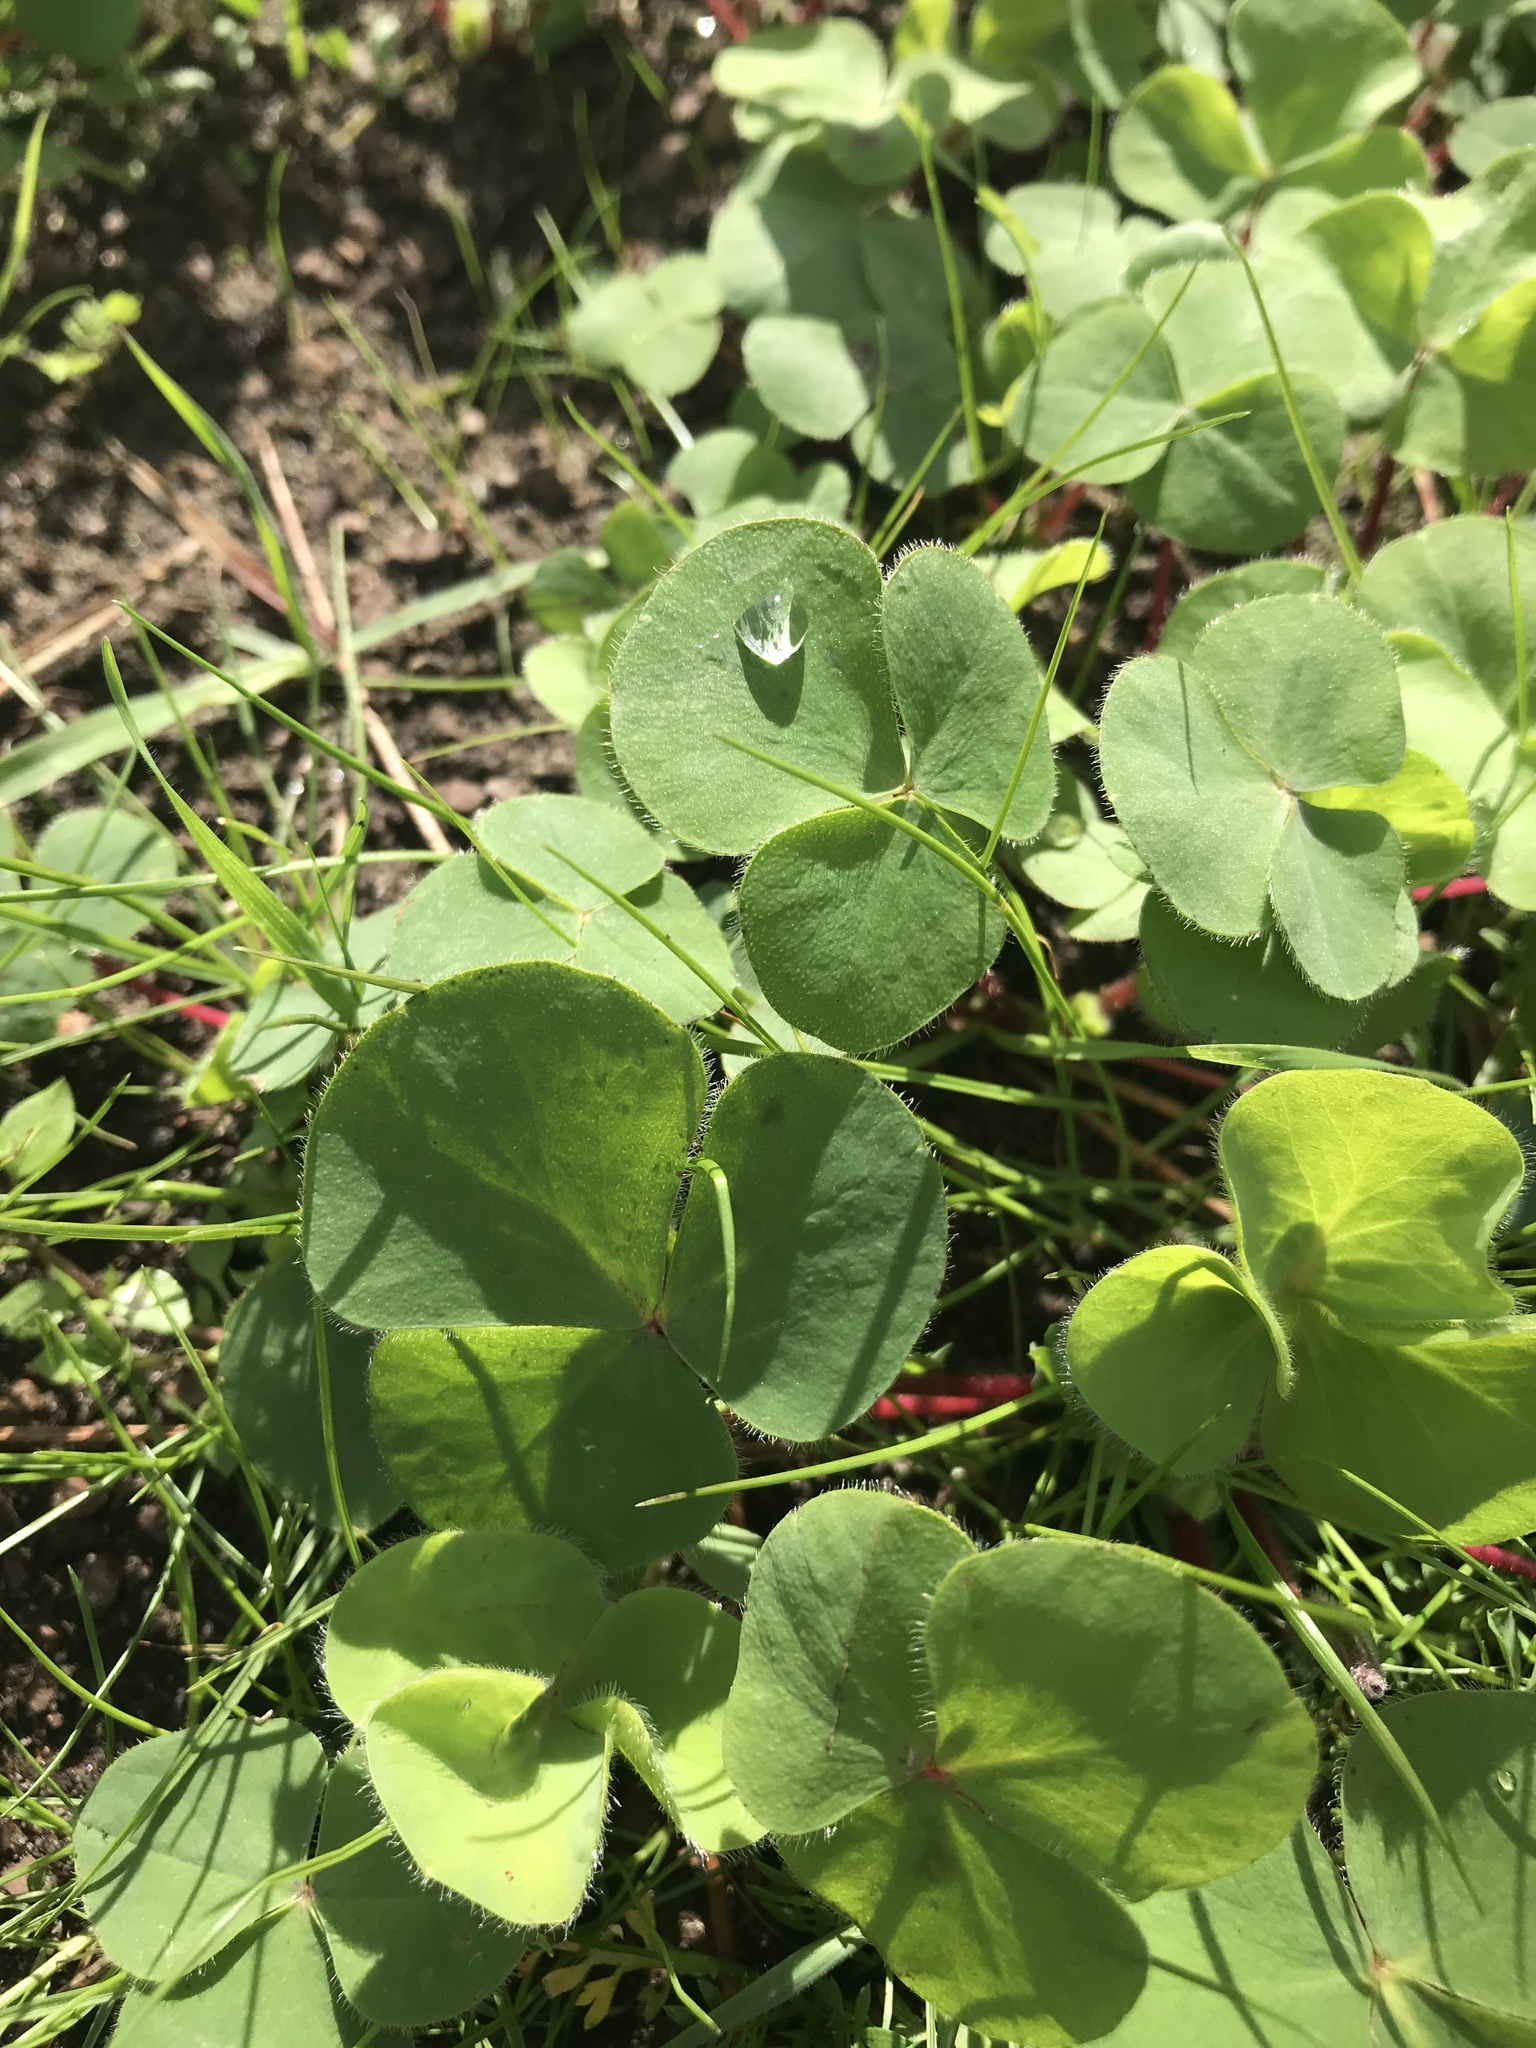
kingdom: Plantae
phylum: Tracheophyta
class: Magnoliopsida
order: Oxalidales
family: Oxalidaceae
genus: Oxalis
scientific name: Oxalis purpurea
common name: Purple woodsorrel
